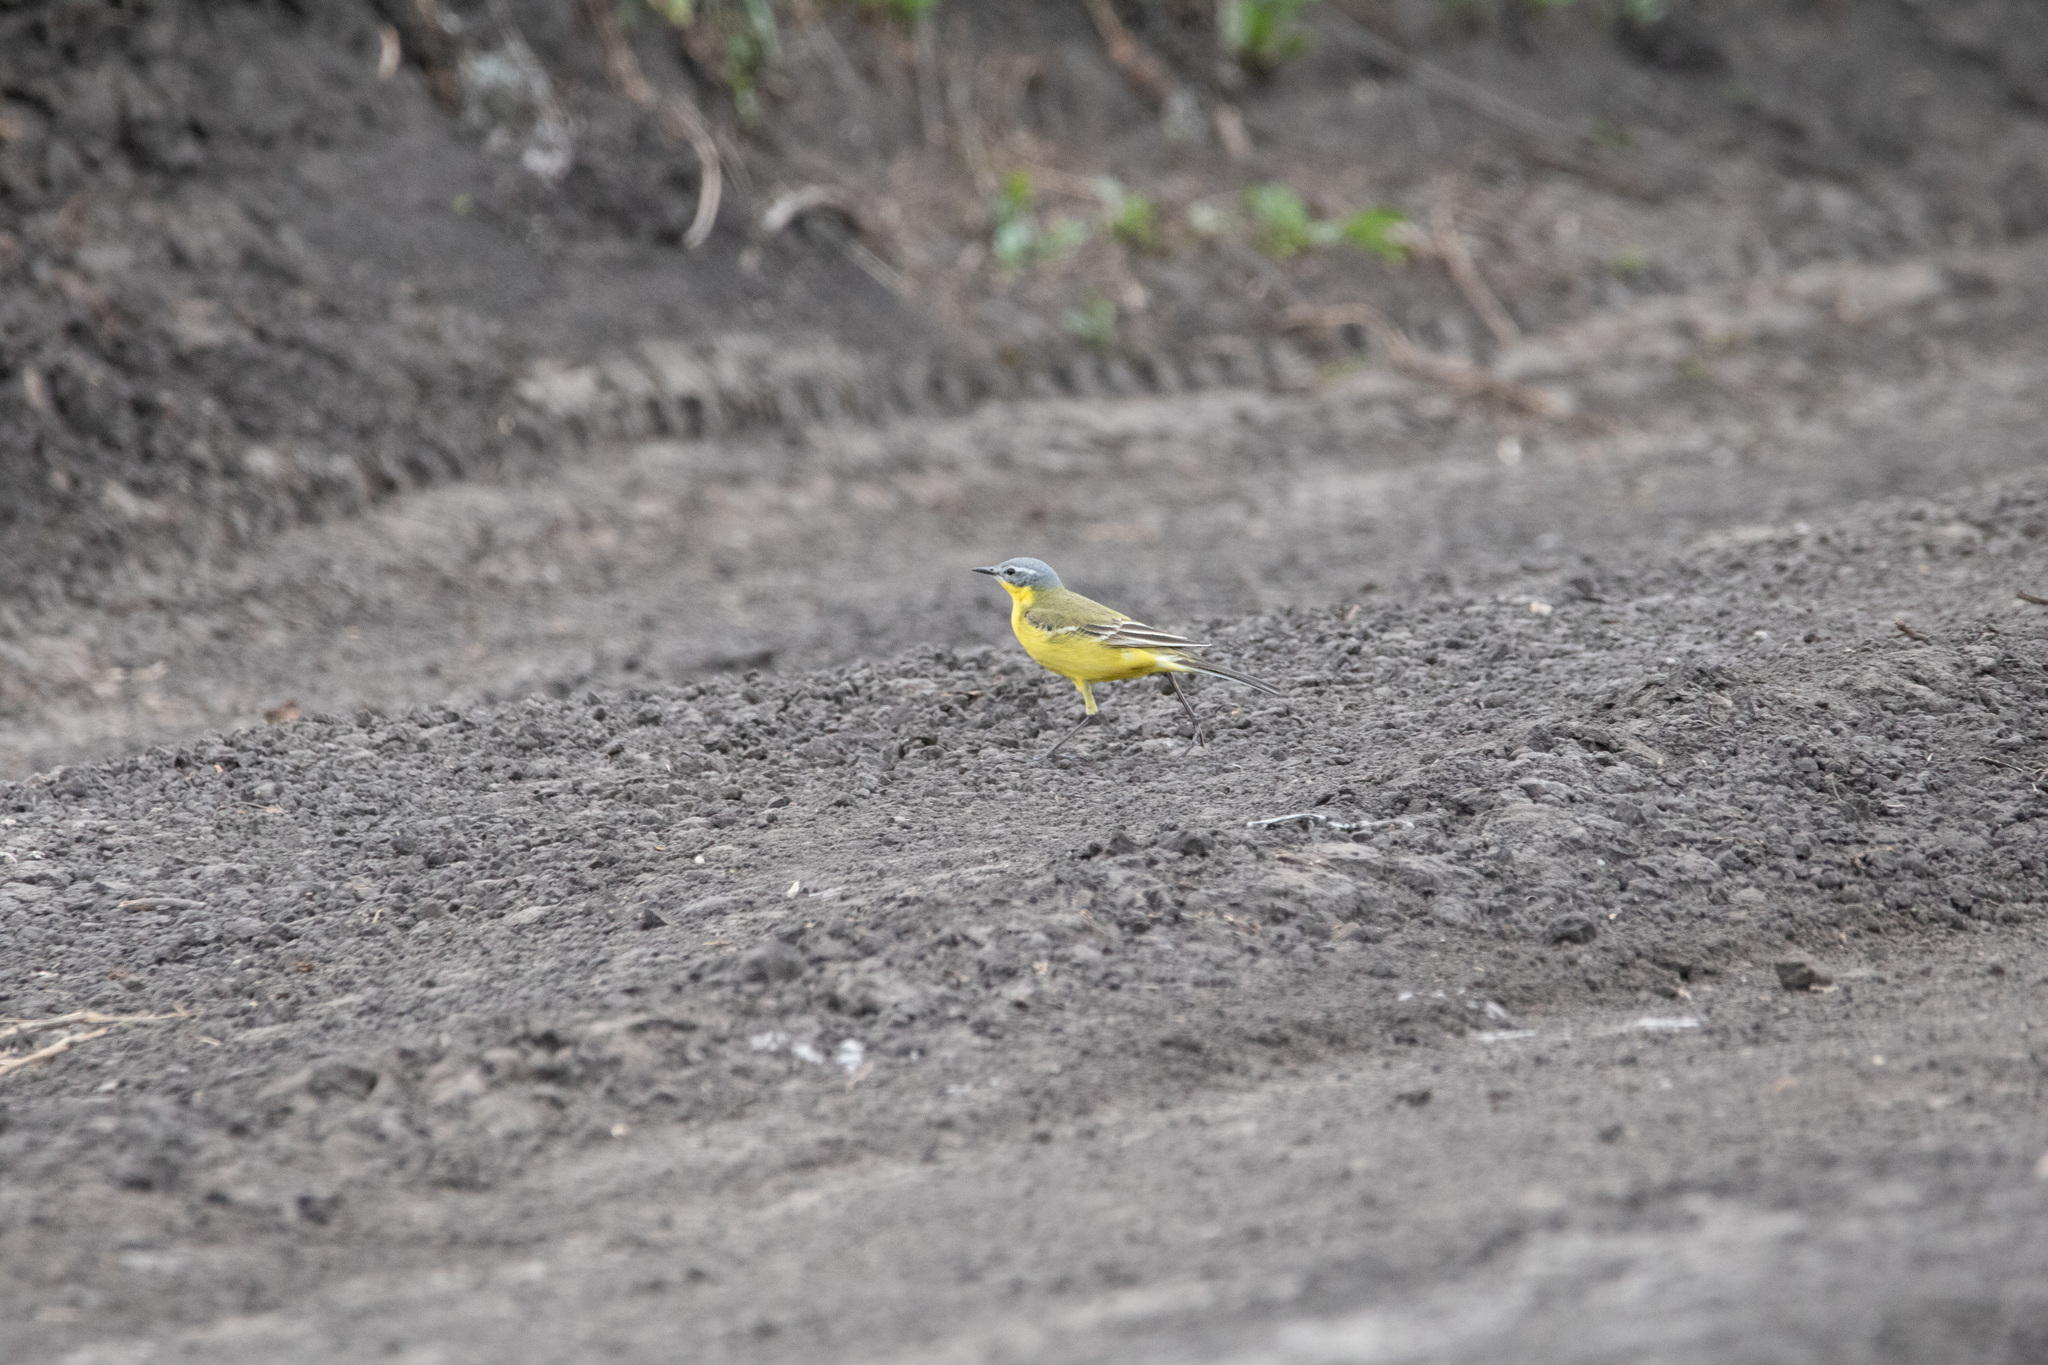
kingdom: Animalia
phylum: Chordata
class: Aves
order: Passeriformes
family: Motacillidae
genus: Motacilla
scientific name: Motacilla flava
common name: Western yellow wagtail
